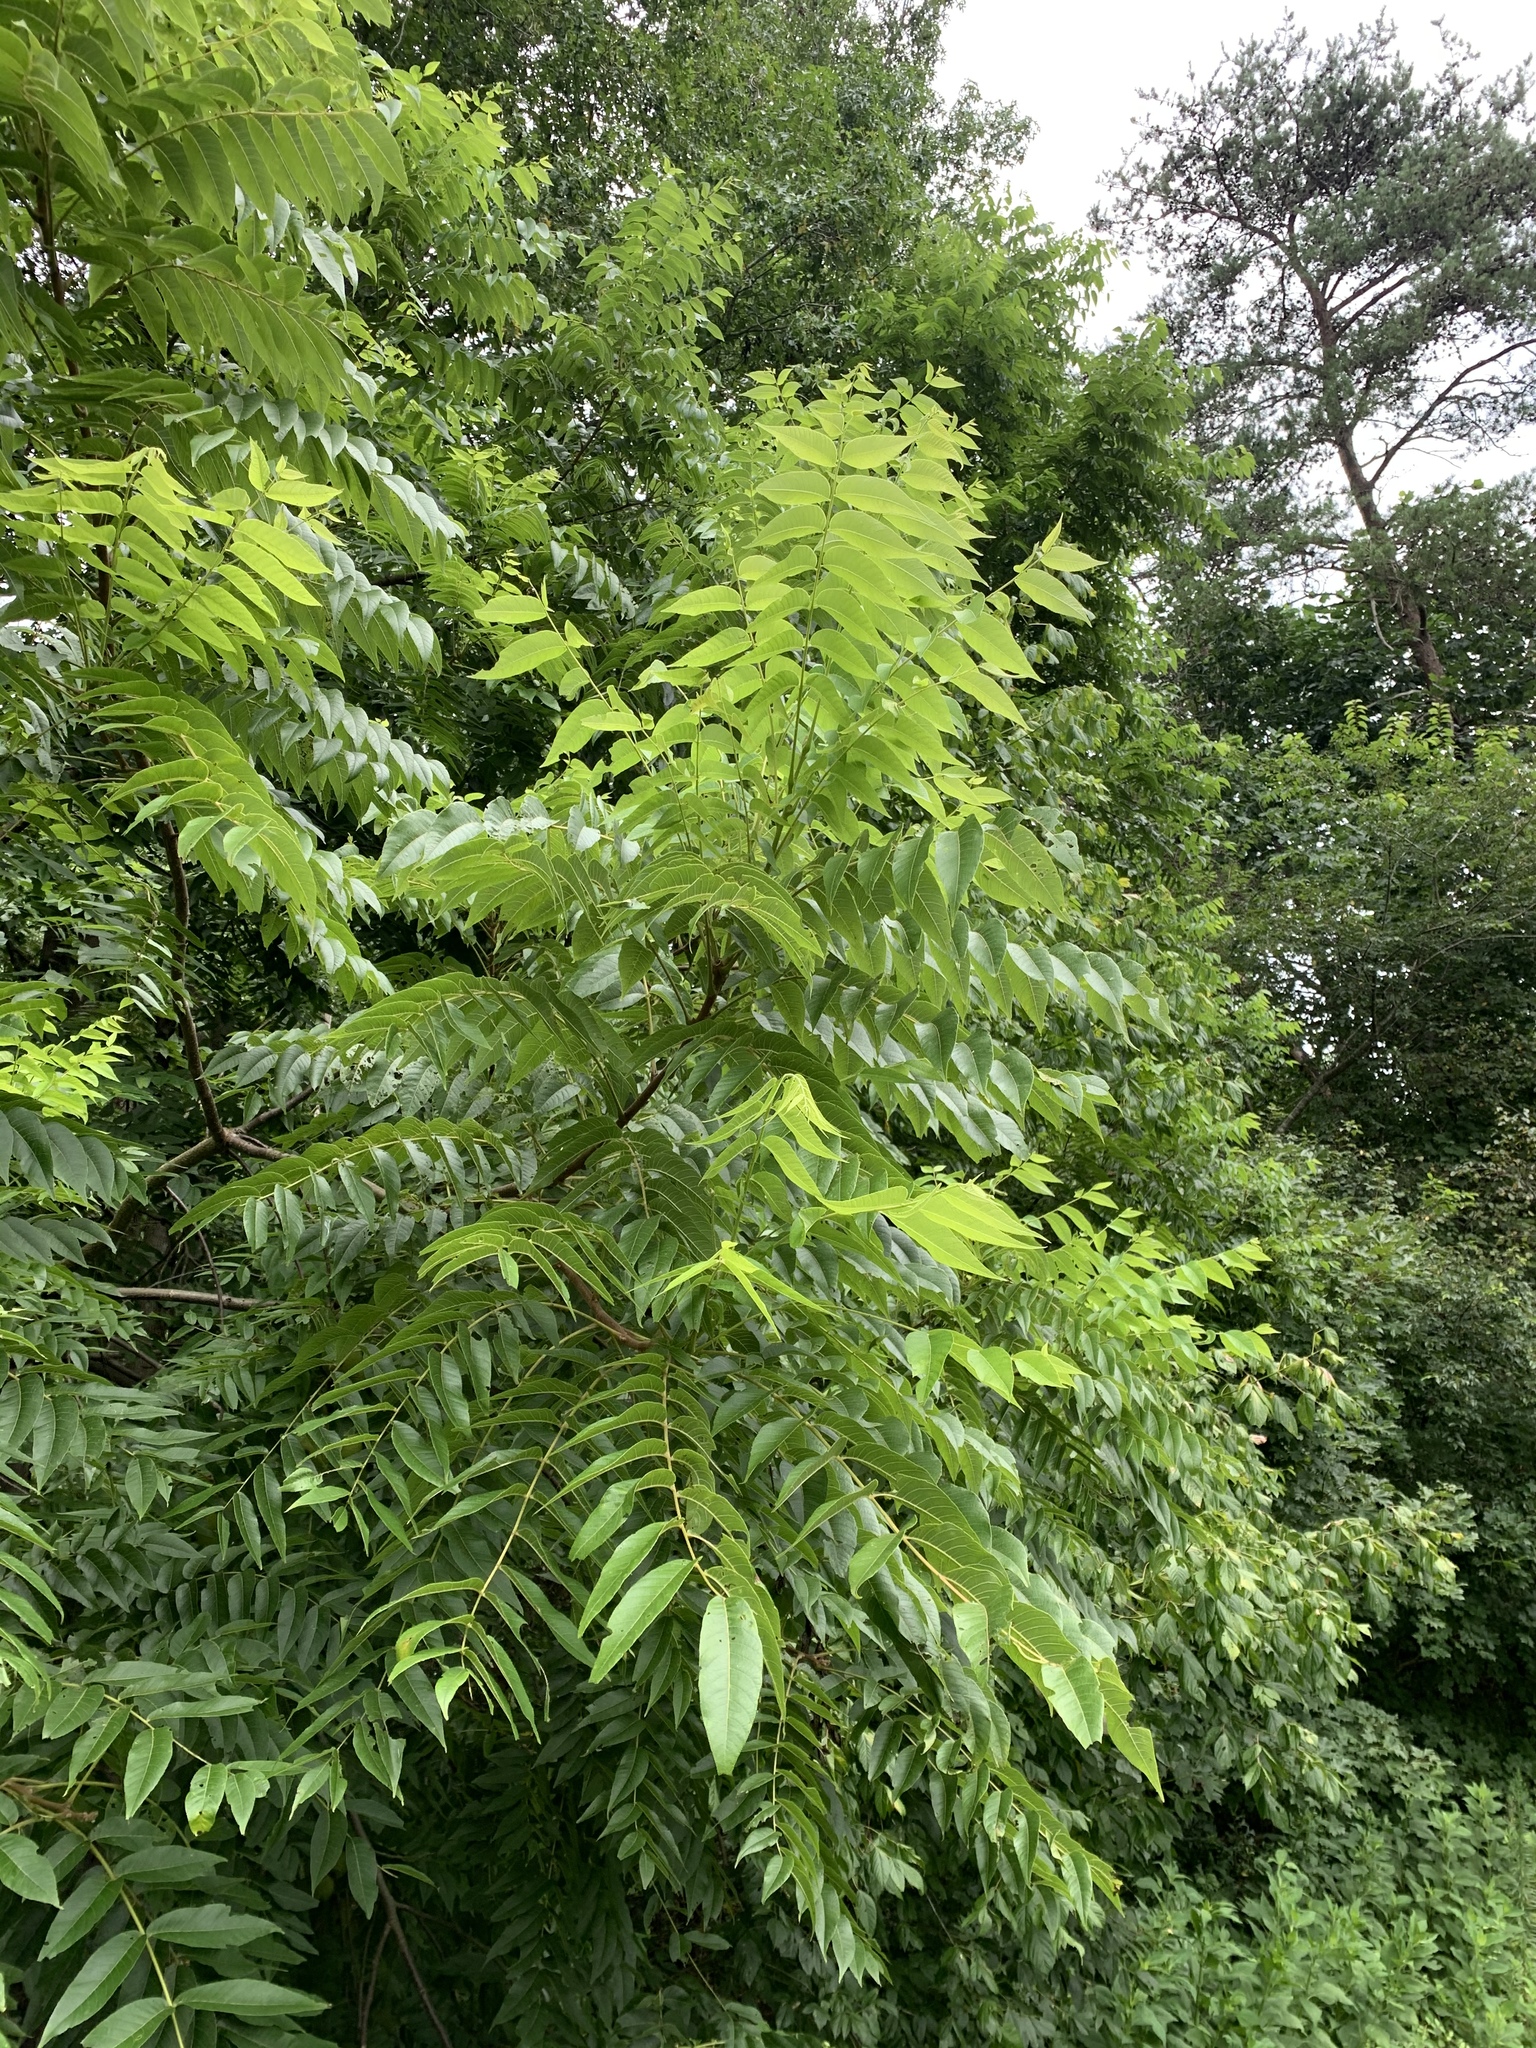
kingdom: Plantae
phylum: Tracheophyta
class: Magnoliopsida
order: Fagales
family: Juglandaceae
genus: Juglans
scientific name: Juglans nigra
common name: Black walnut
